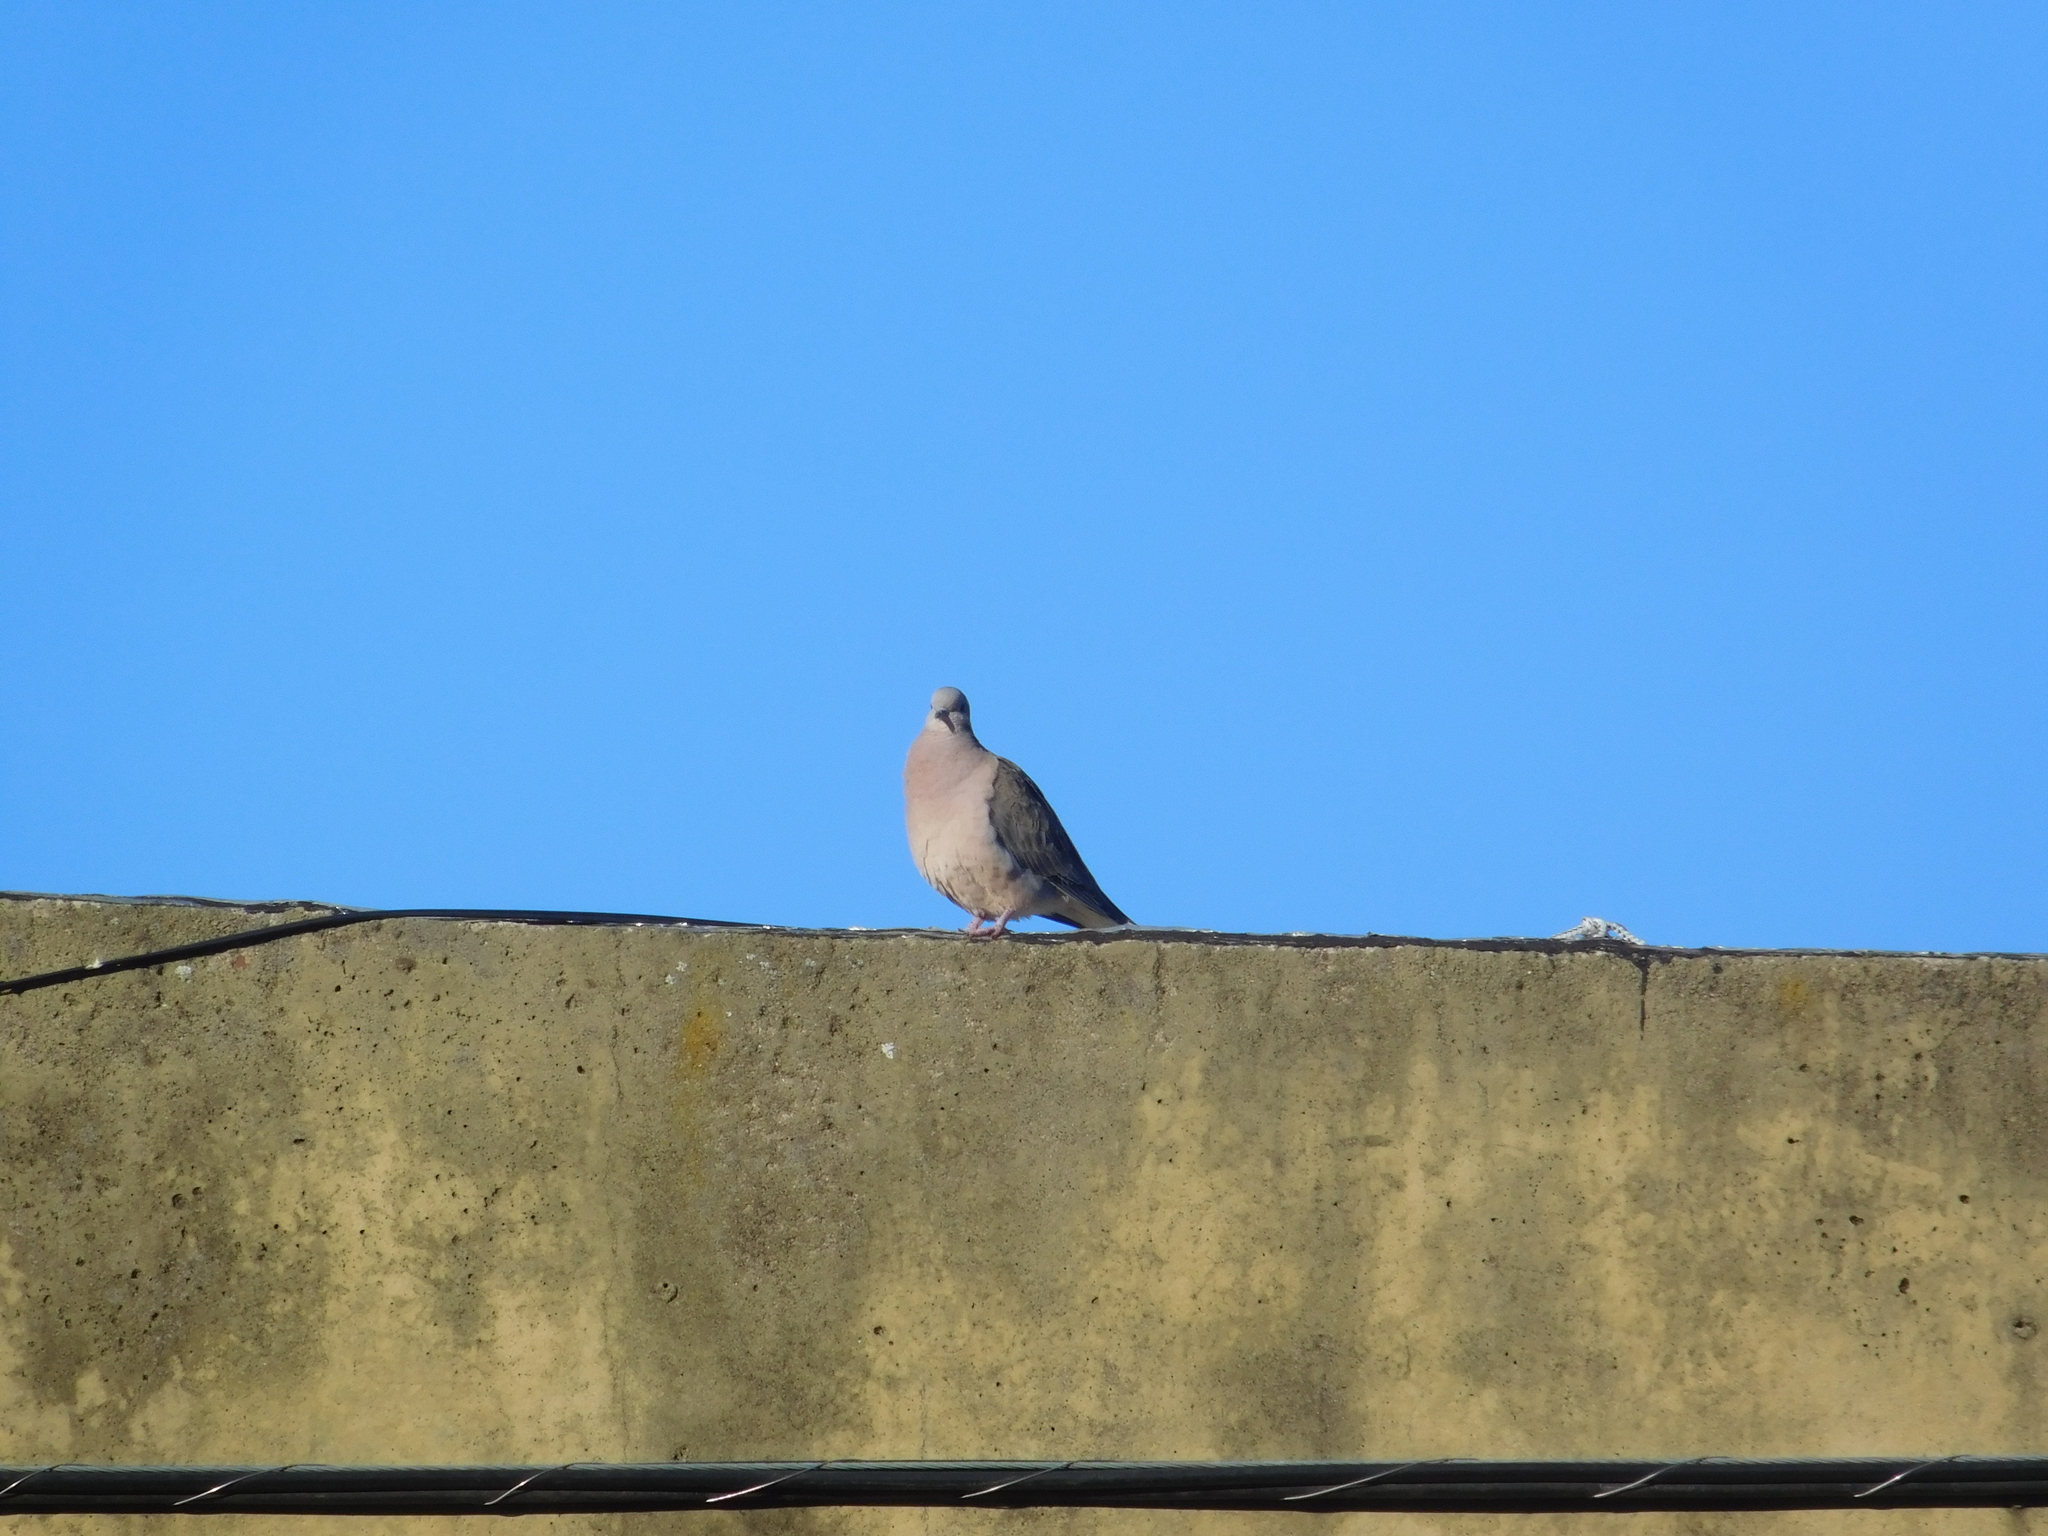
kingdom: Animalia
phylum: Chordata
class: Aves
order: Columbiformes
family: Columbidae
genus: Zenaida
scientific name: Zenaida auriculata
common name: Eared dove
